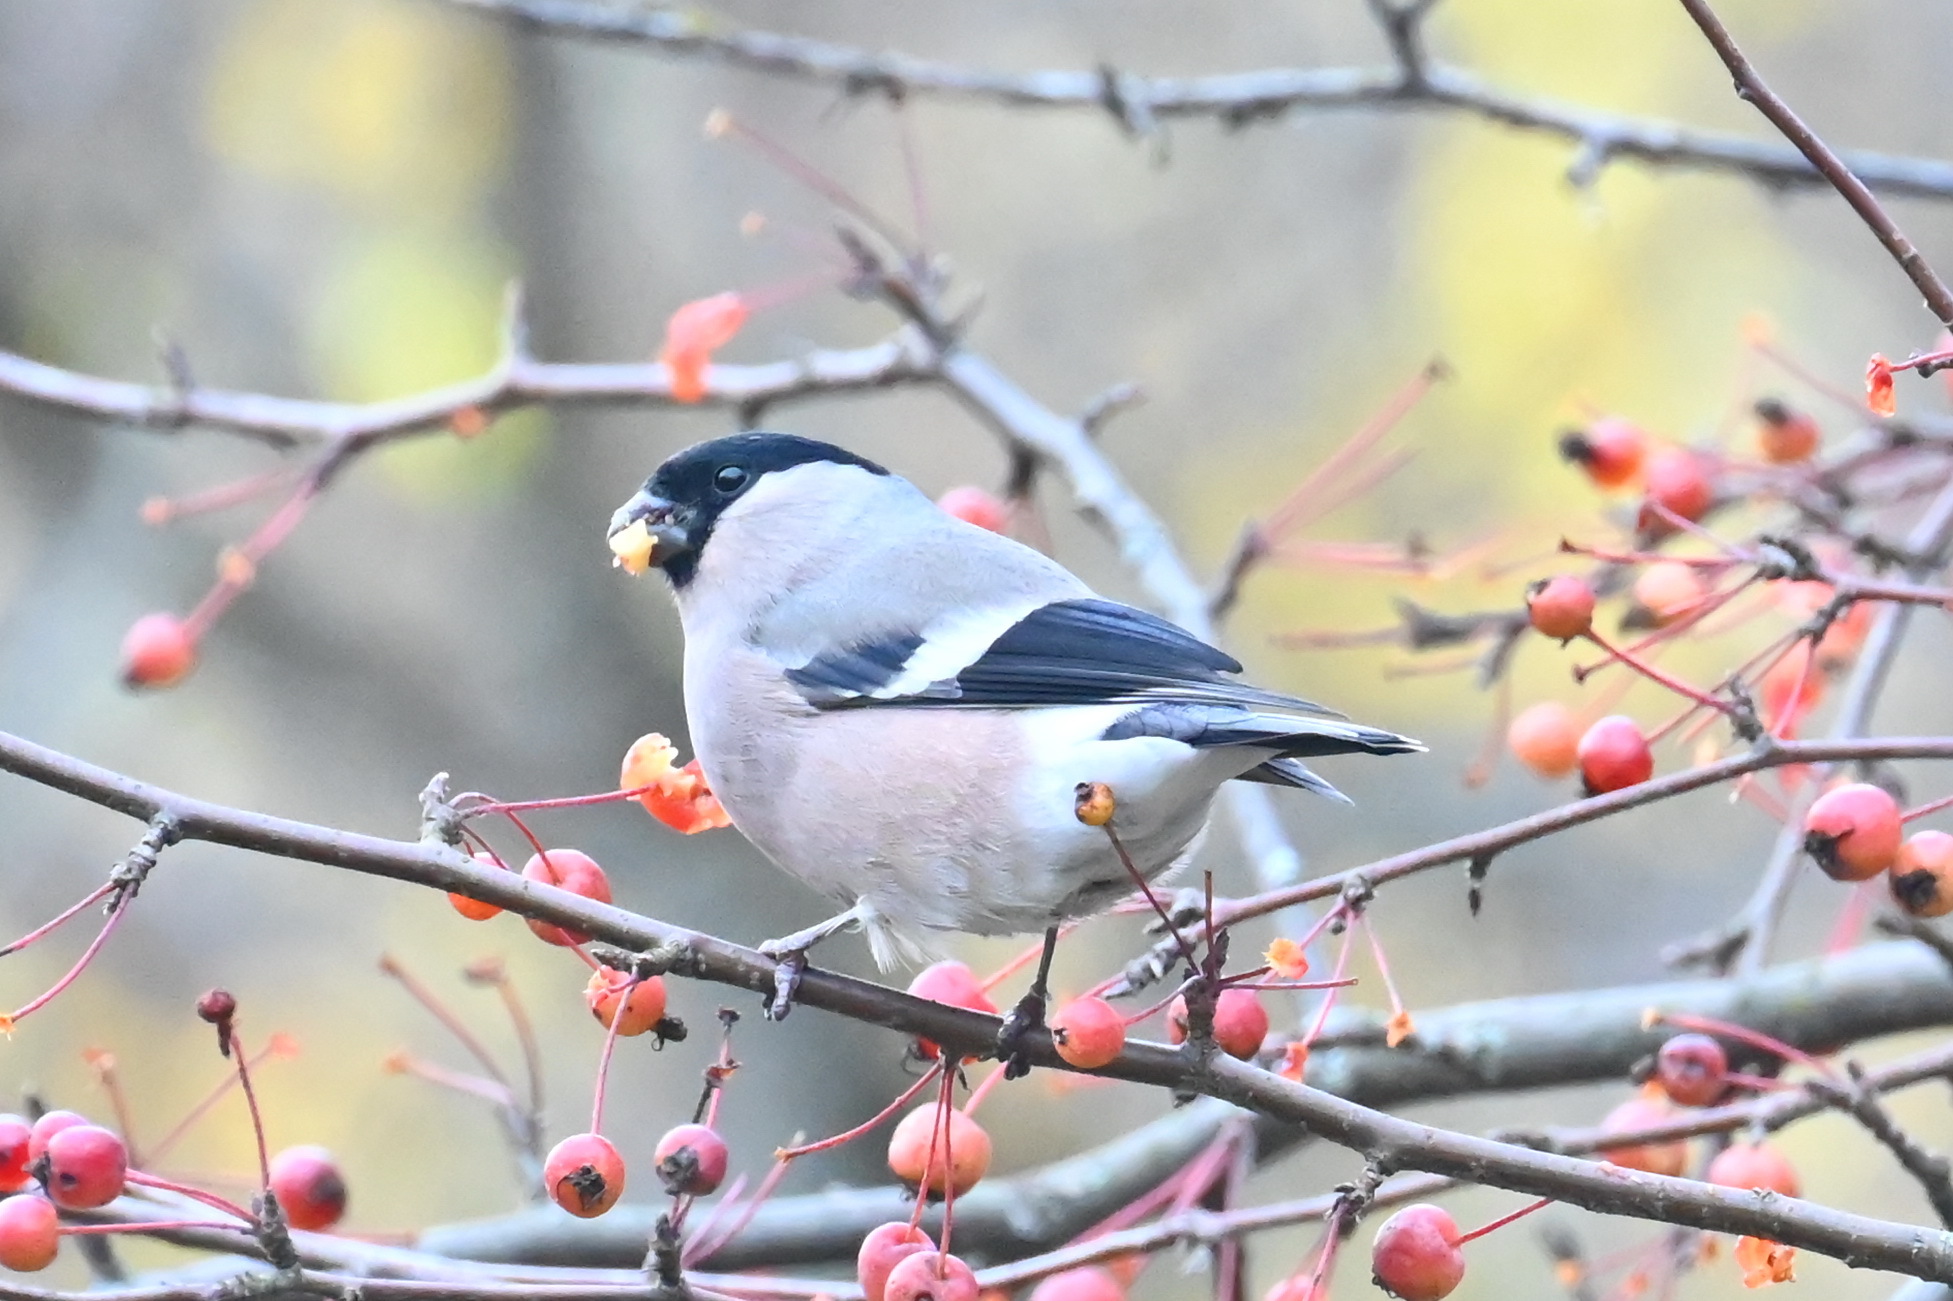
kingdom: Animalia
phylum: Chordata
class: Aves
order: Passeriformes
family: Fringillidae
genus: Pyrrhula
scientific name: Pyrrhula pyrrhula
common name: Eurasian bullfinch
